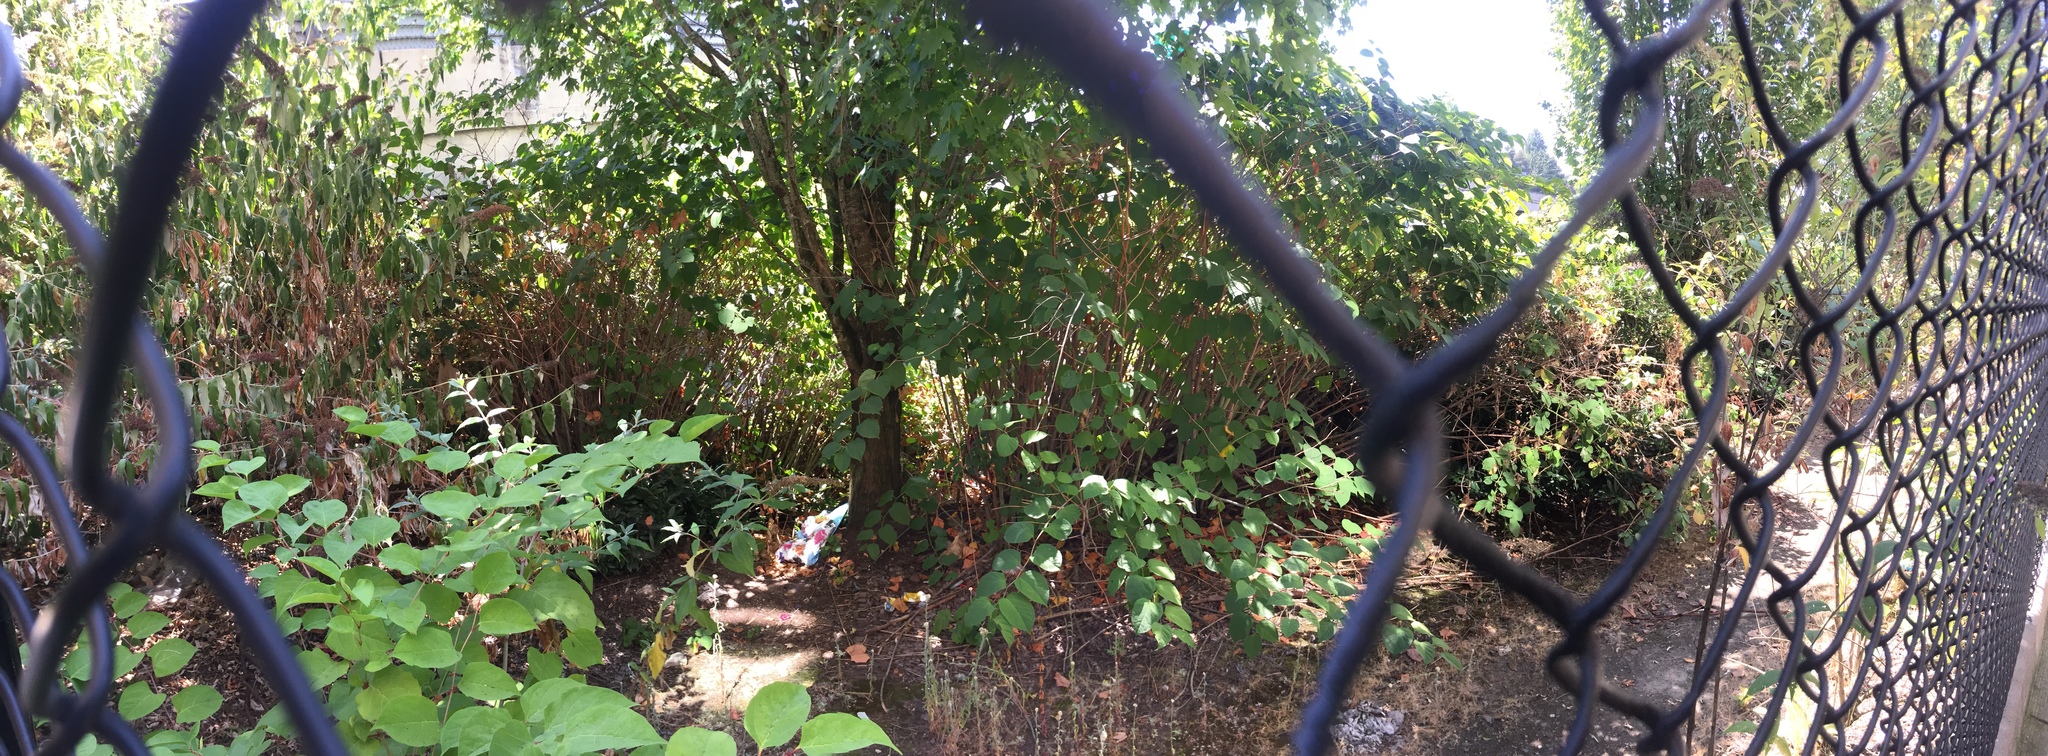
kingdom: Plantae
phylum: Tracheophyta
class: Magnoliopsida
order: Caryophyllales
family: Polygonaceae
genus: Reynoutria
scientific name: Reynoutria japonica
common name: Japanese knotweed
